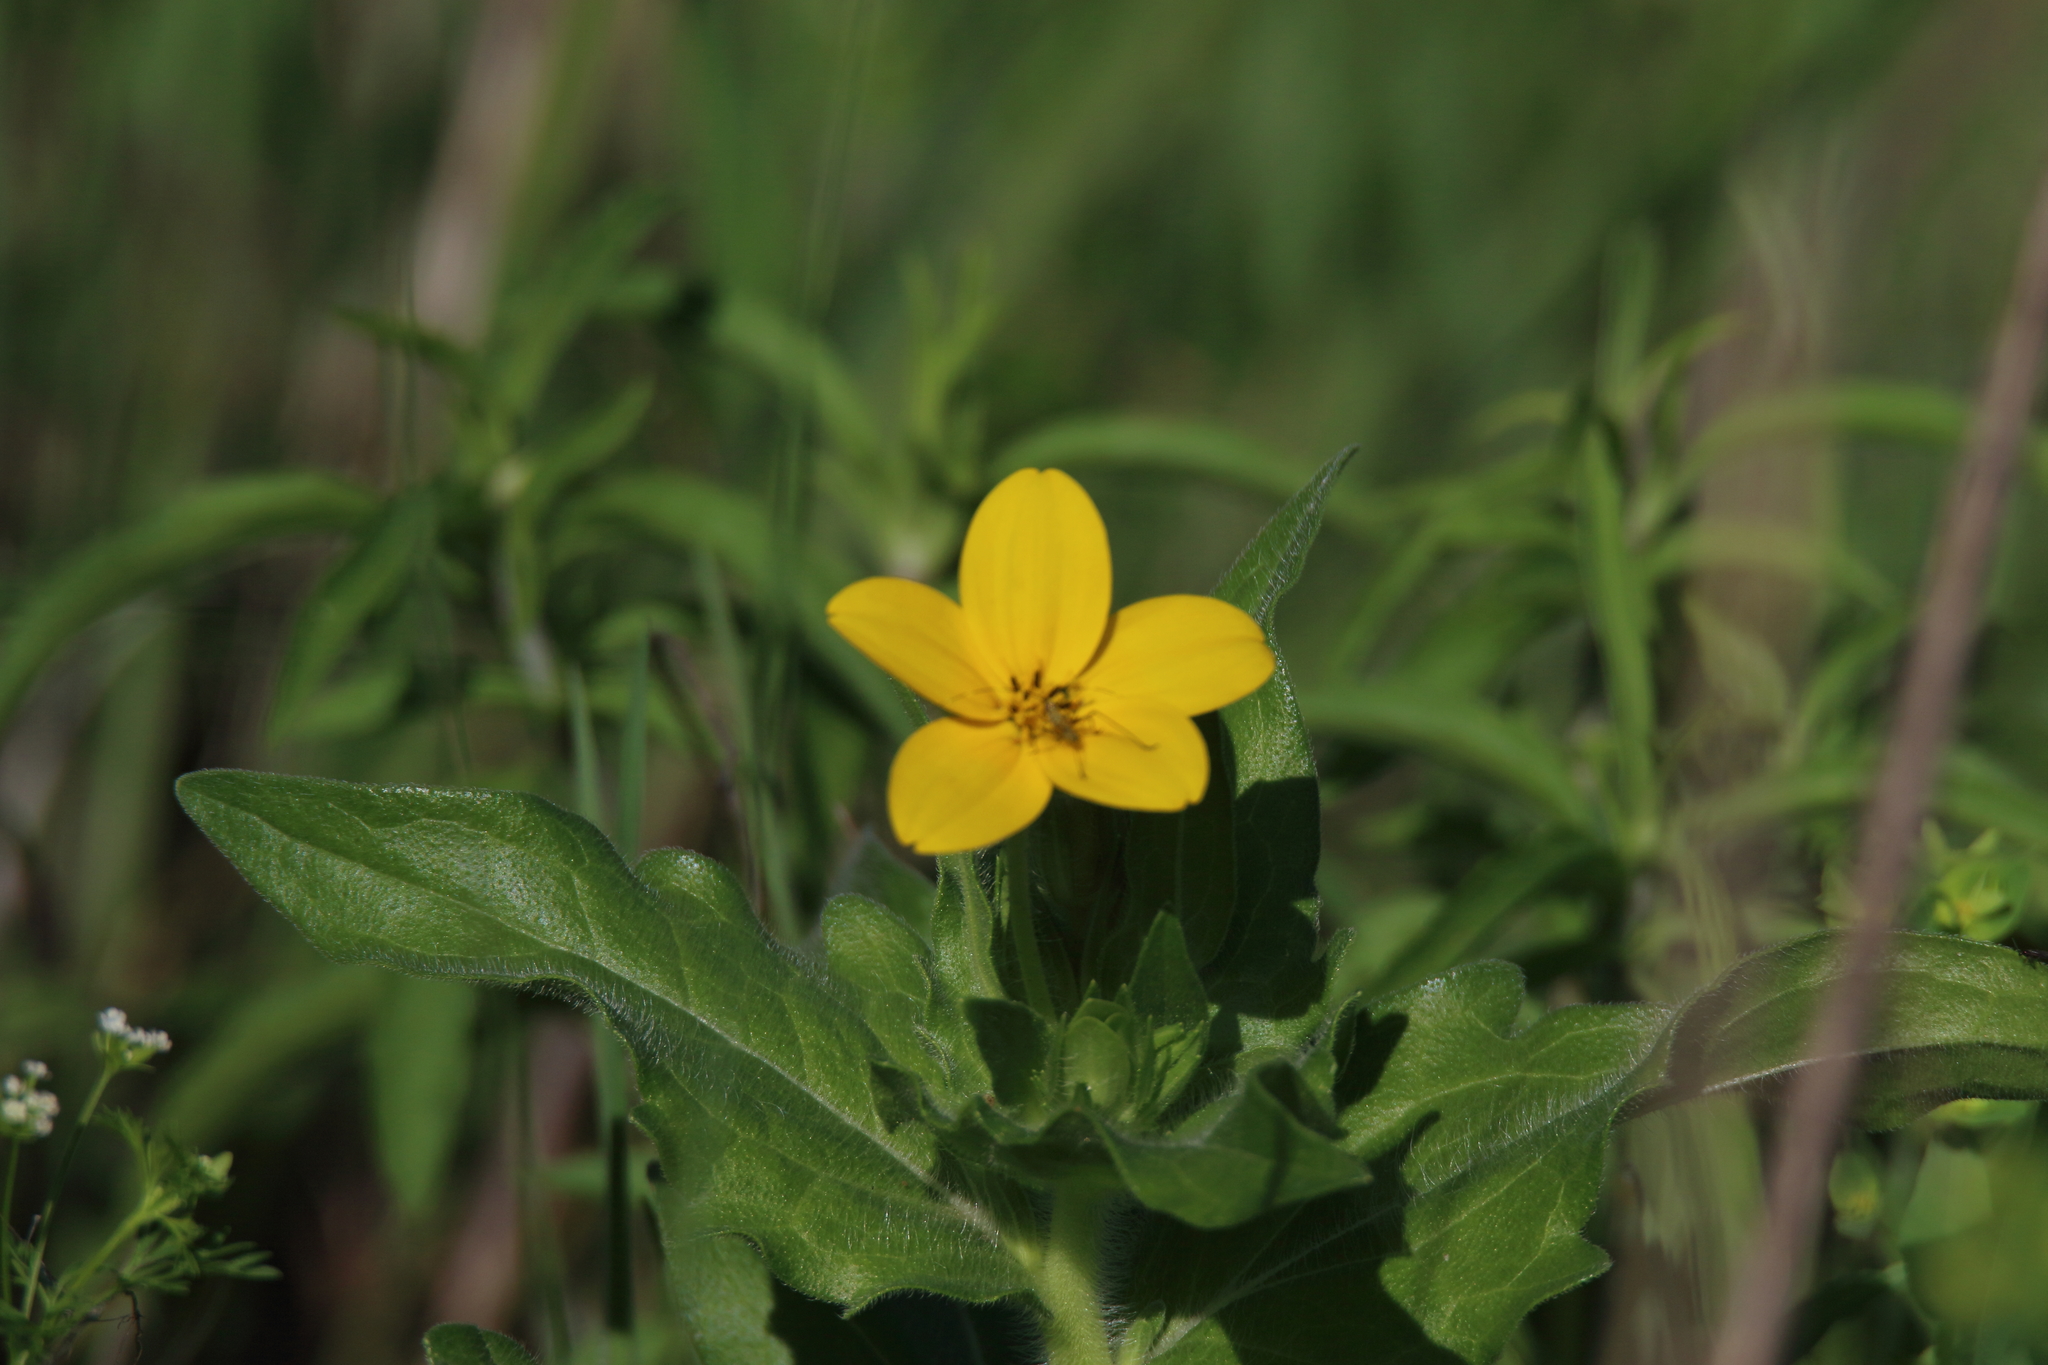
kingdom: Plantae
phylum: Tracheophyta
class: Magnoliopsida
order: Asterales
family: Asteraceae
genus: Lindheimera
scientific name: Lindheimera texana
